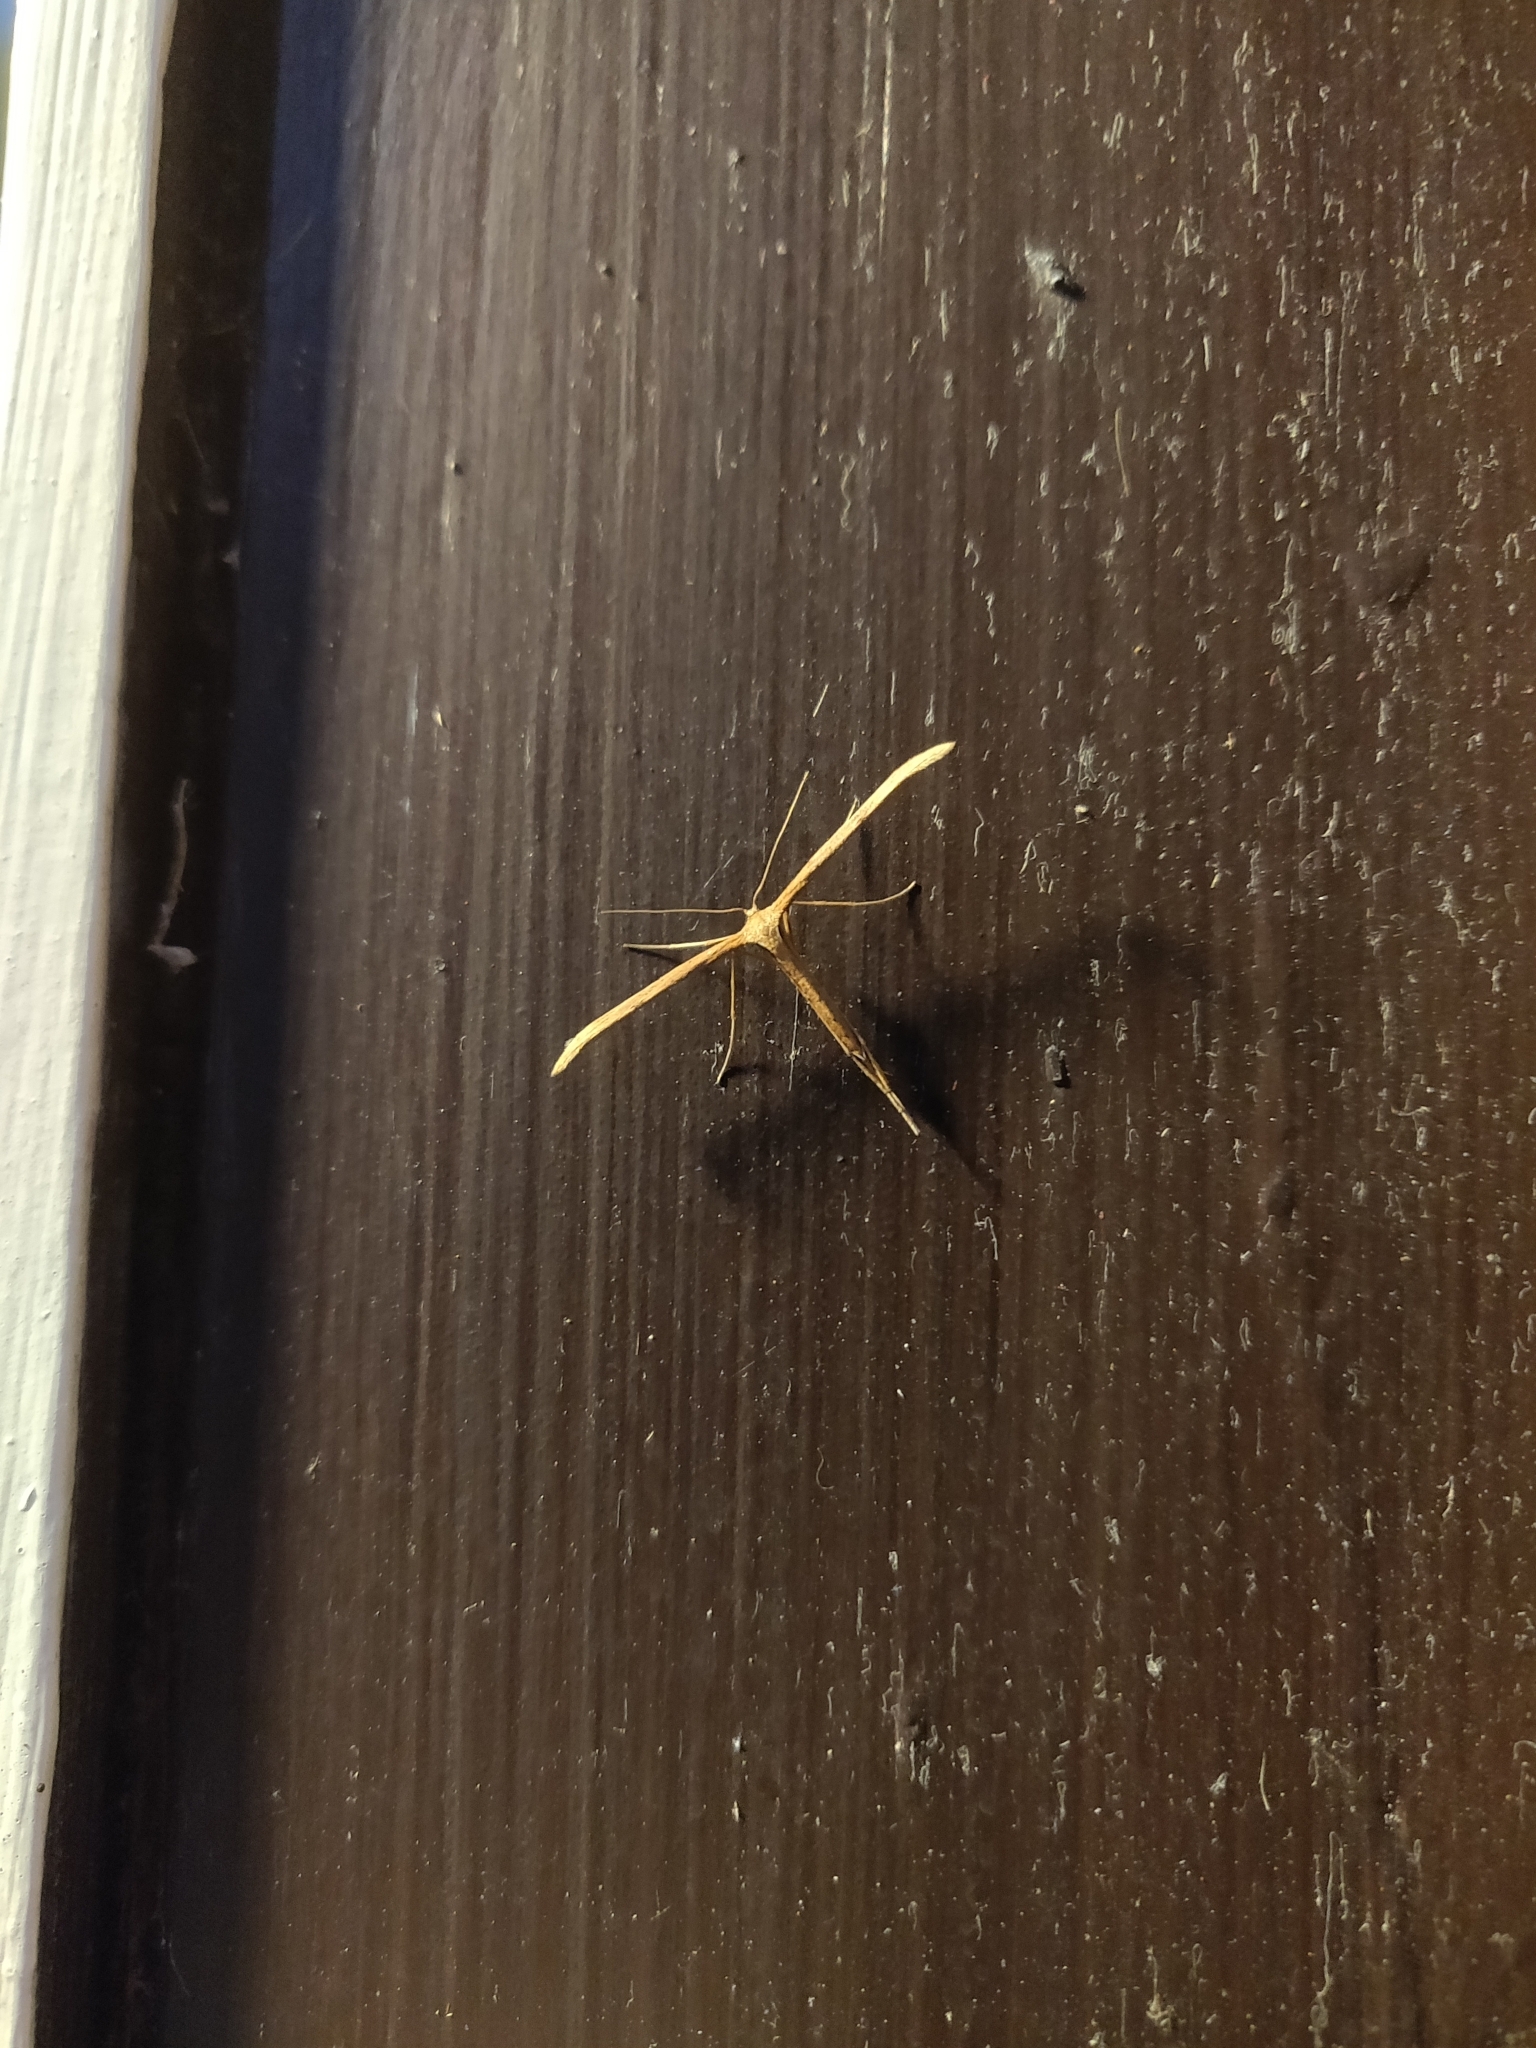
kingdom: Animalia
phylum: Arthropoda
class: Insecta
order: Lepidoptera
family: Pterophoridae
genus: Emmelina
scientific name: Emmelina monodactyla
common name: Common plume
